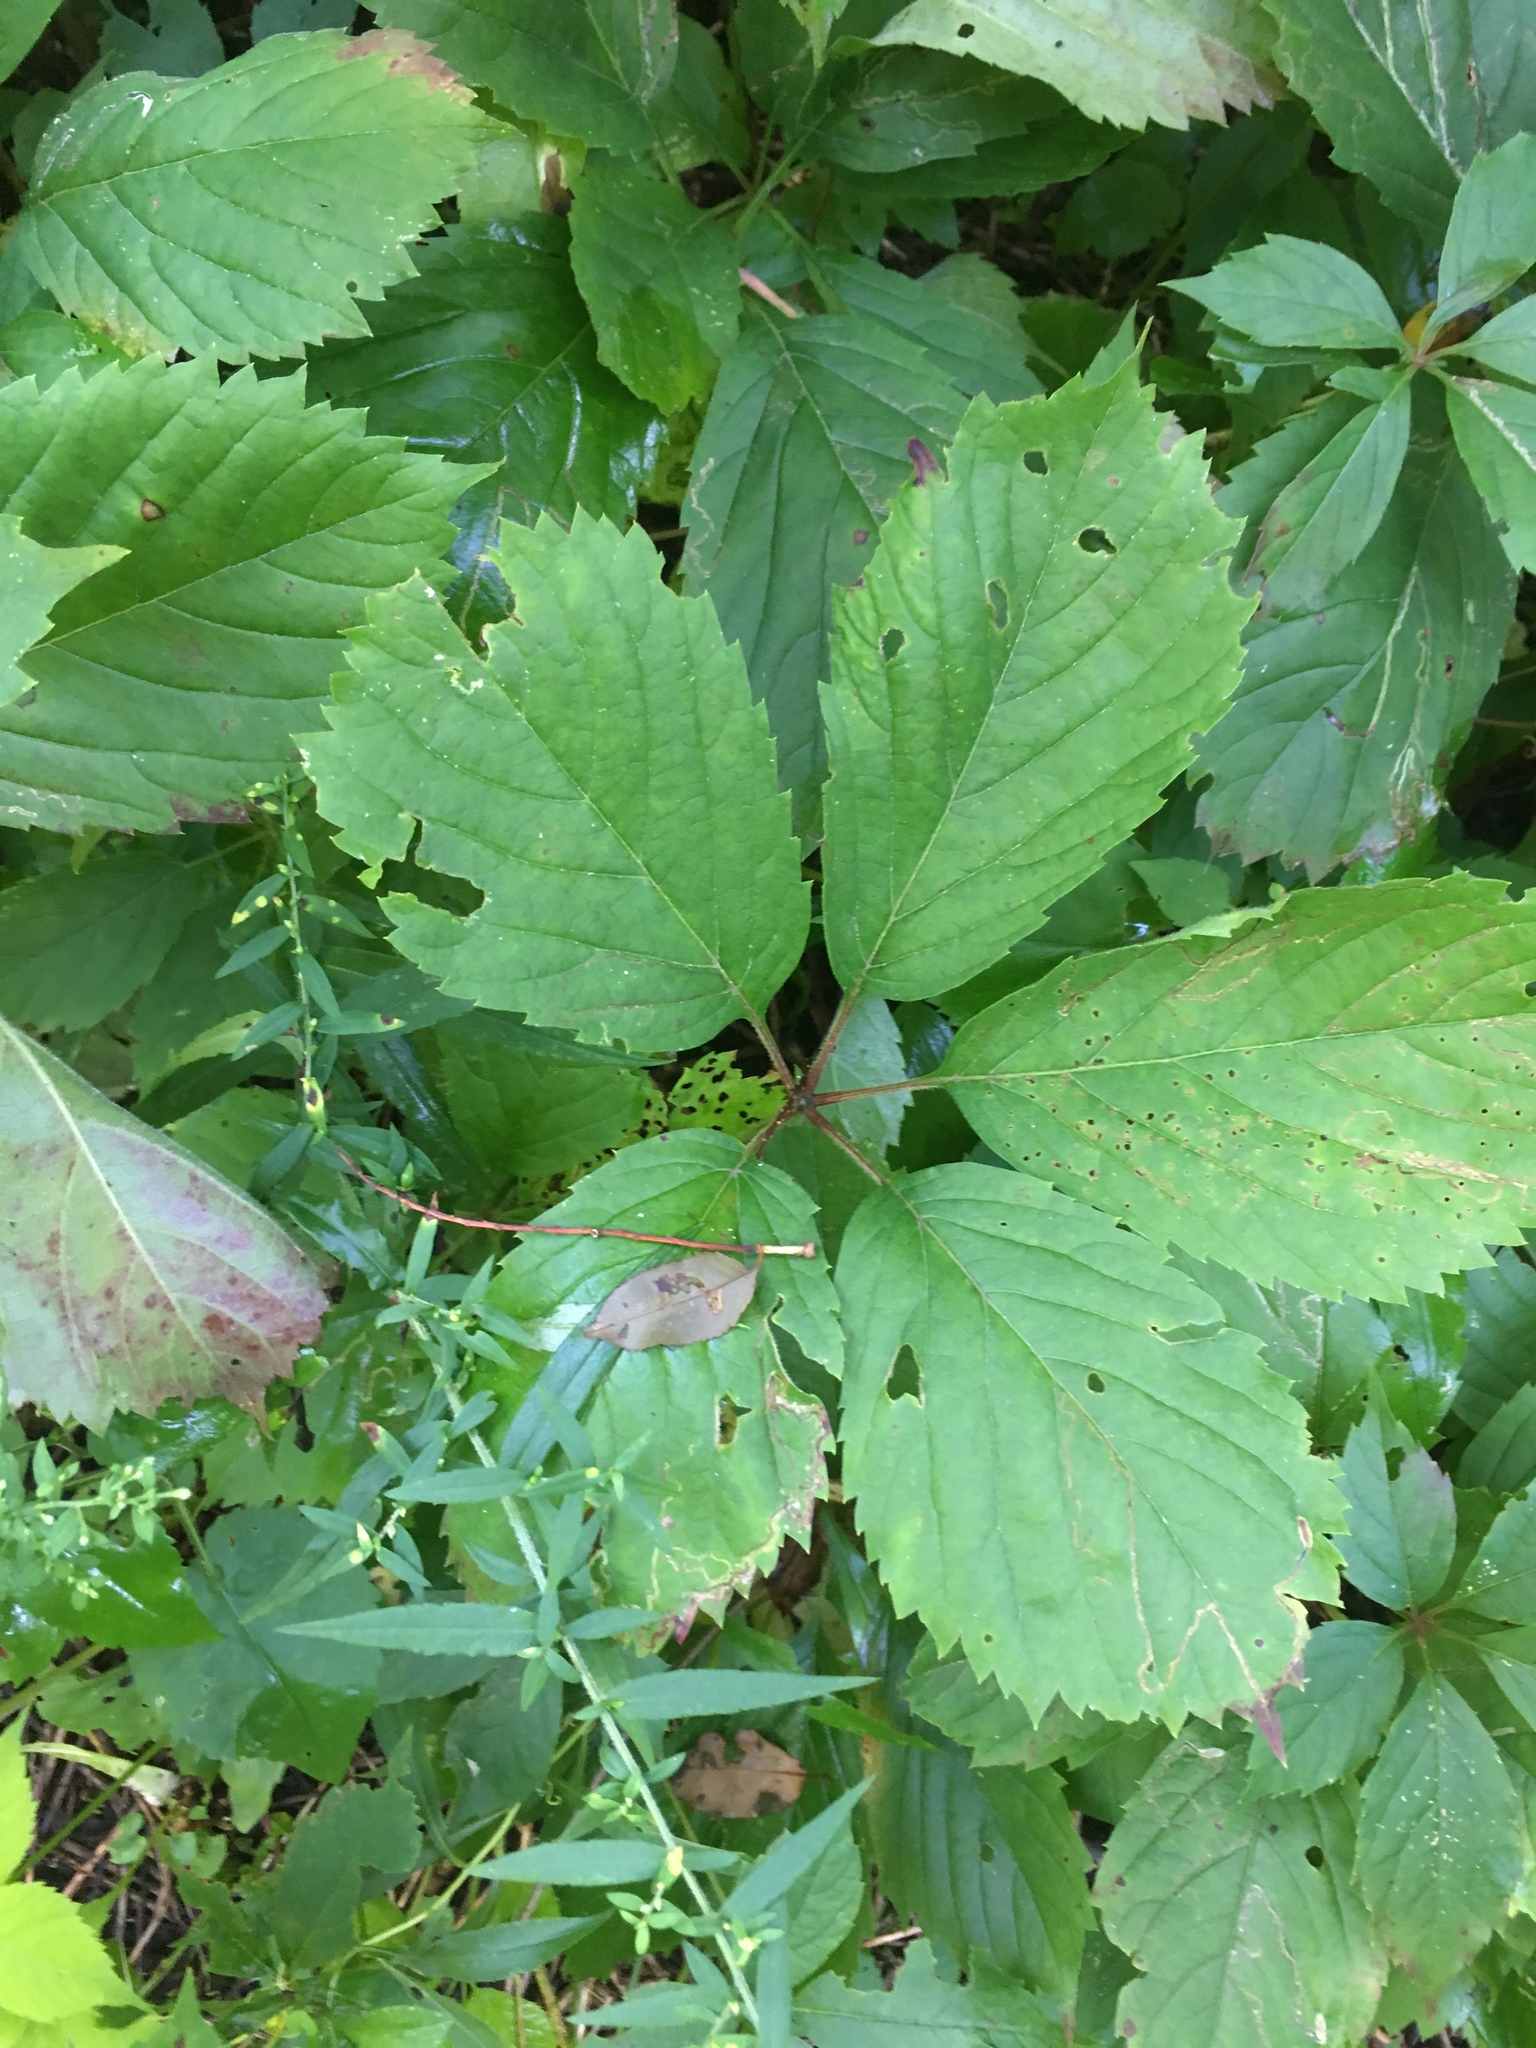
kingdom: Plantae
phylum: Tracheophyta
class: Magnoliopsida
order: Vitales
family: Vitaceae
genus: Parthenocissus
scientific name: Parthenocissus inserta
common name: False virginia-creeper
